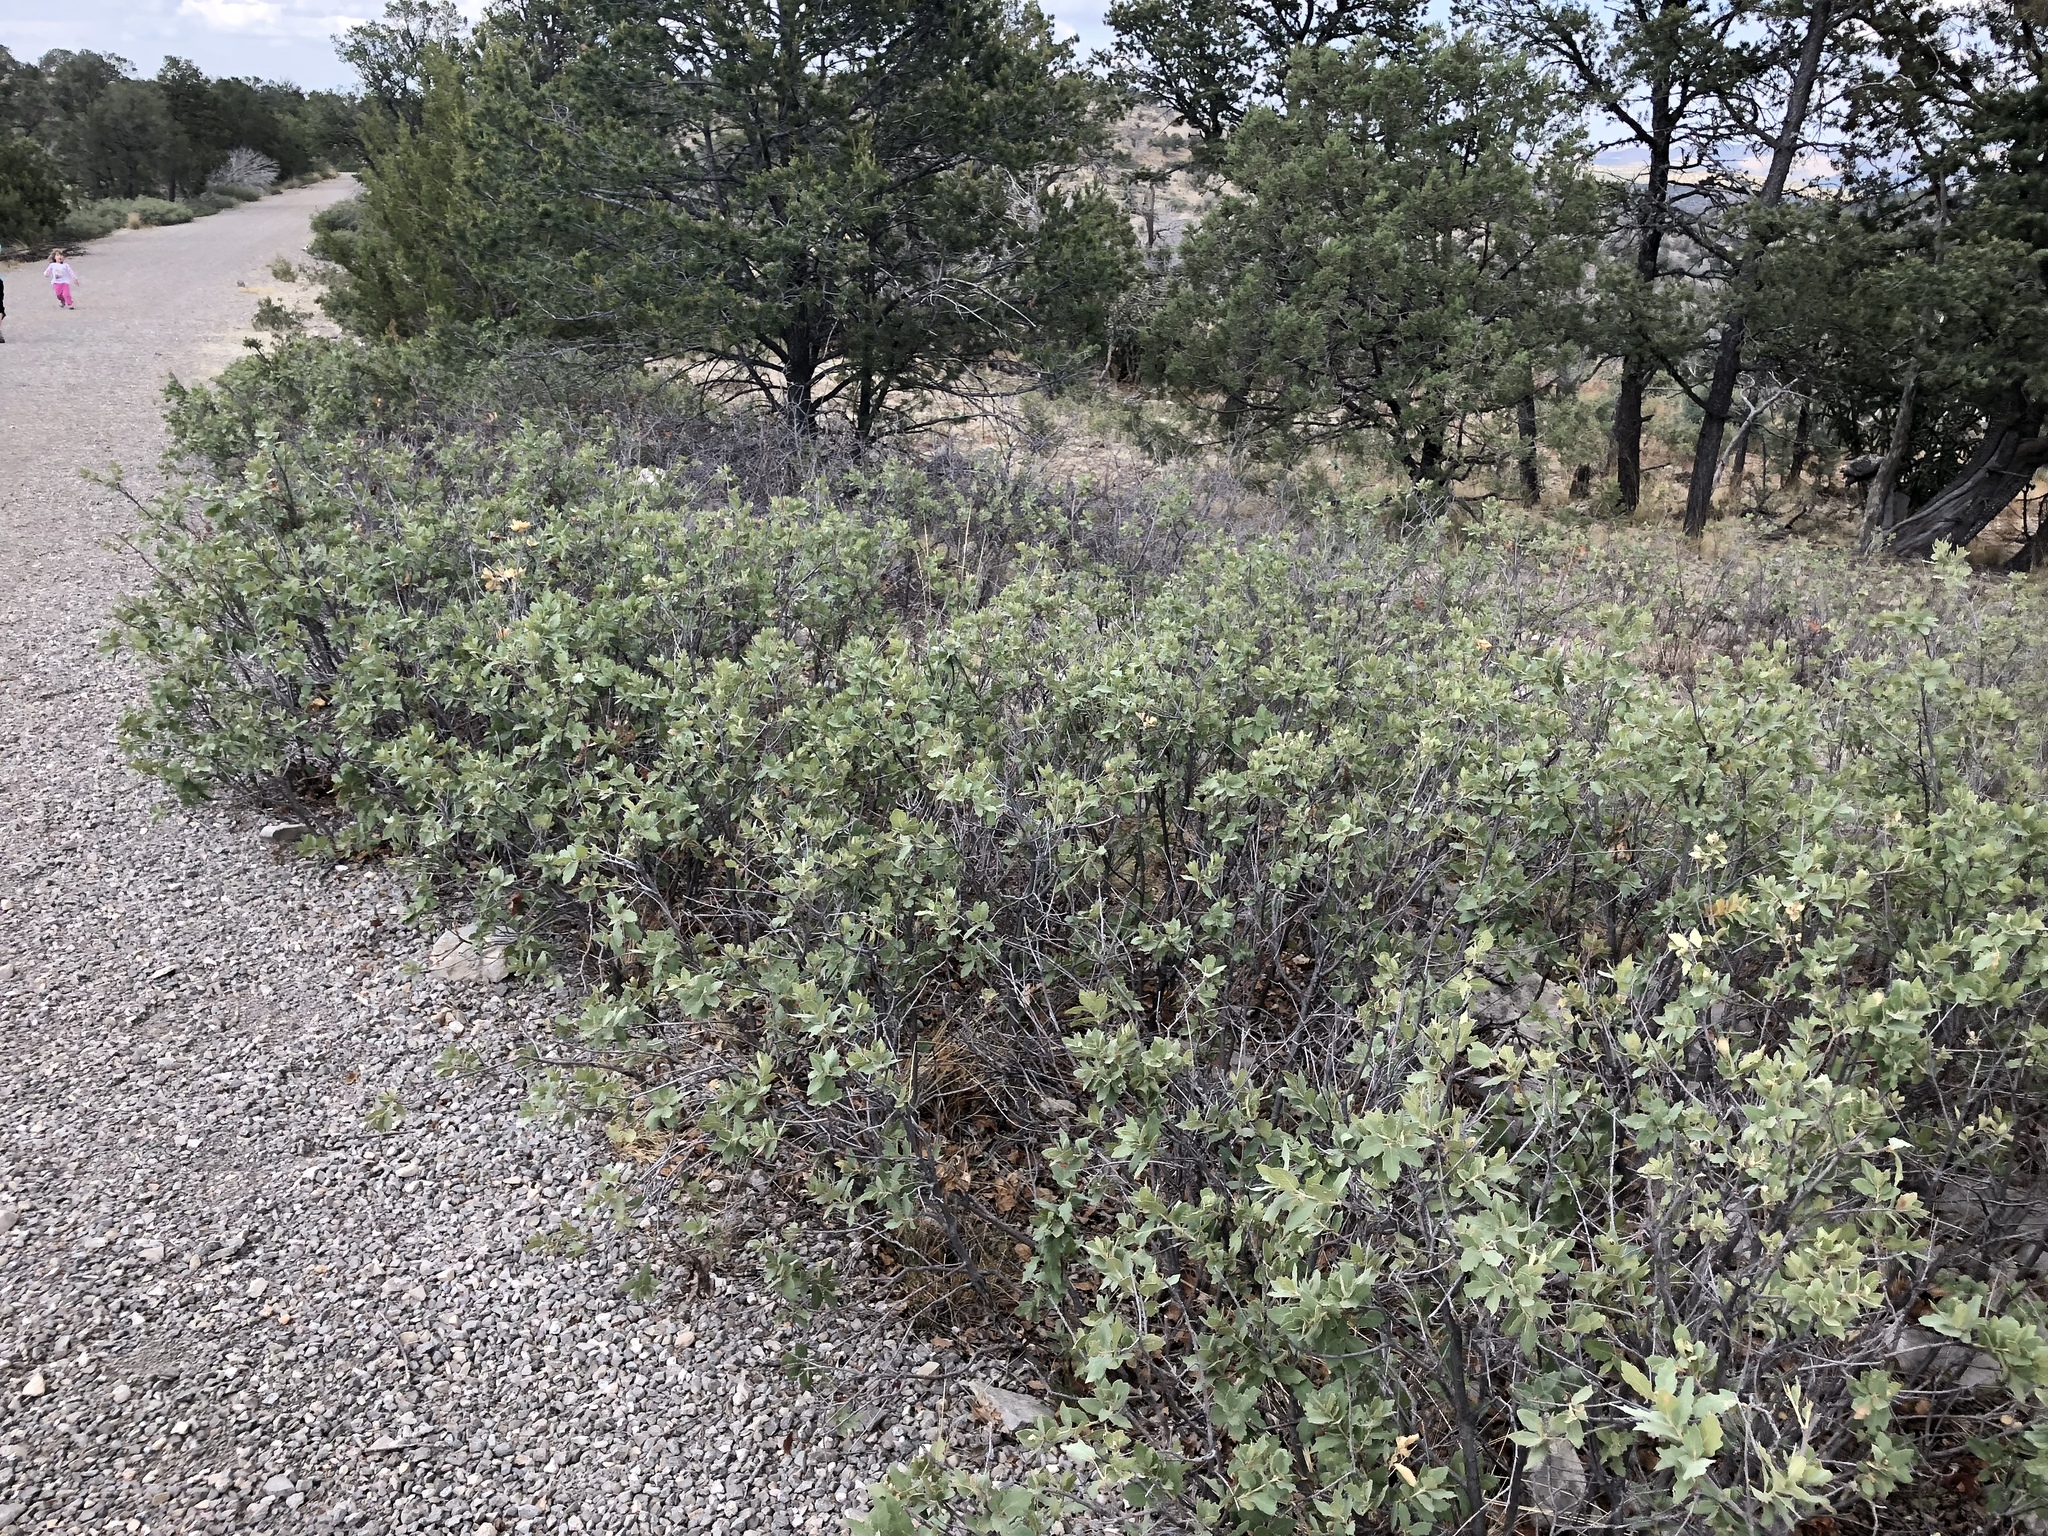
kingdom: Plantae
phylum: Tracheophyta
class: Magnoliopsida
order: Fagales
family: Fagaceae
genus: Quercus
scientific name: Quercus undulata
